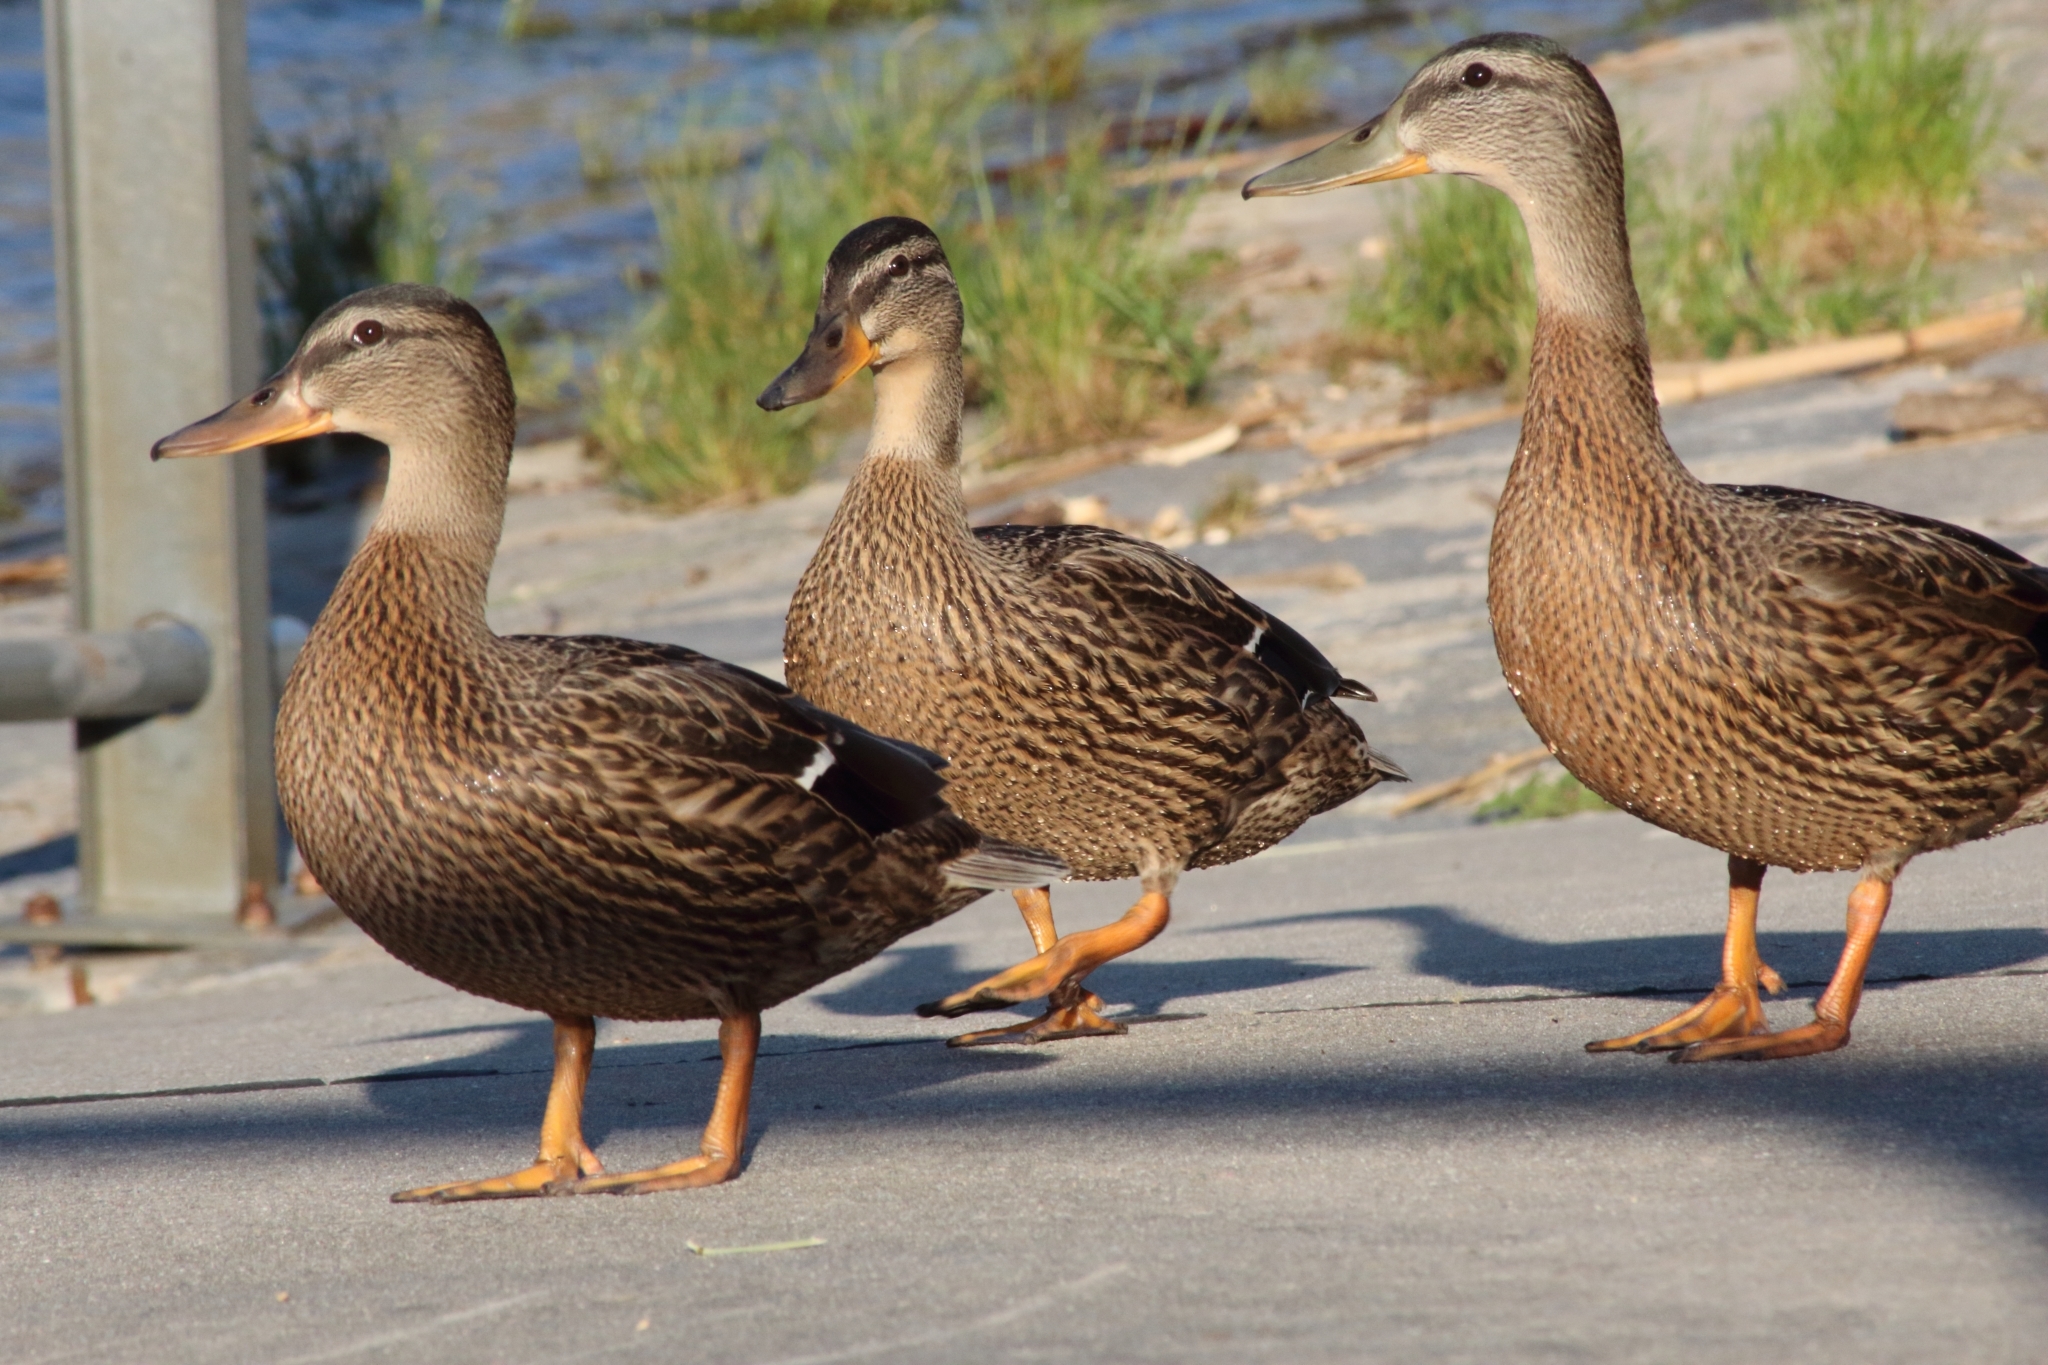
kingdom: Animalia
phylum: Chordata
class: Aves
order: Anseriformes
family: Anatidae
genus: Anas
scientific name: Anas platyrhynchos
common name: Mallard
